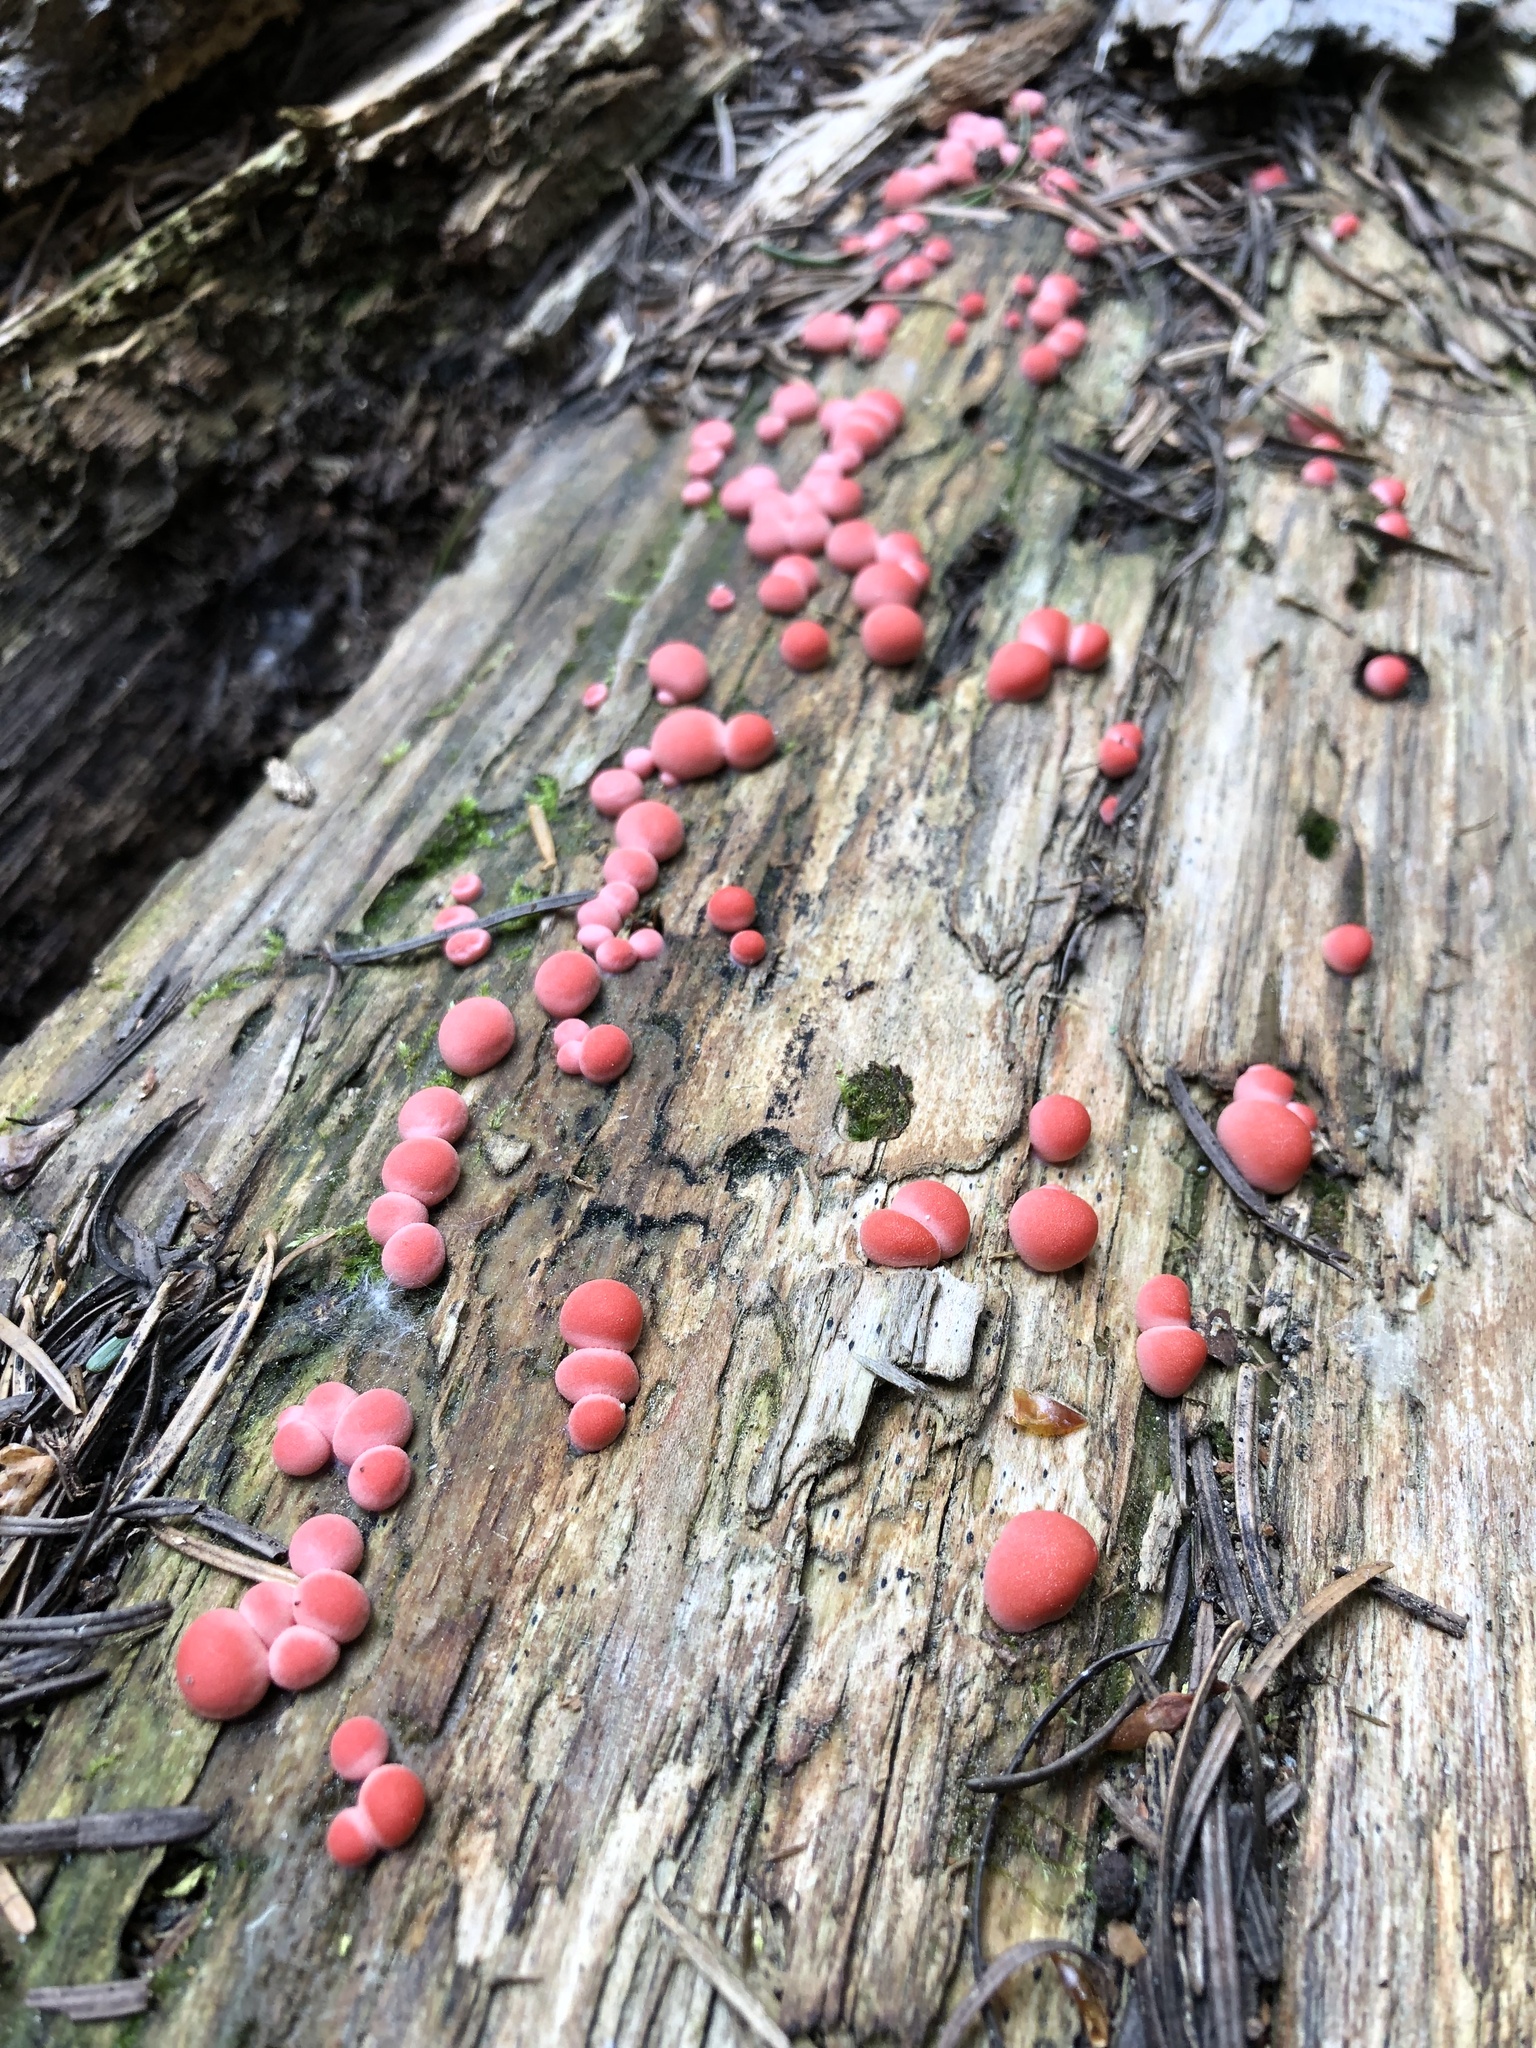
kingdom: Protozoa
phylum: Mycetozoa
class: Myxomycetes
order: Cribrariales
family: Tubiferaceae
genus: Lycogala
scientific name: Lycogala epidendrum
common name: Wolf's milk
